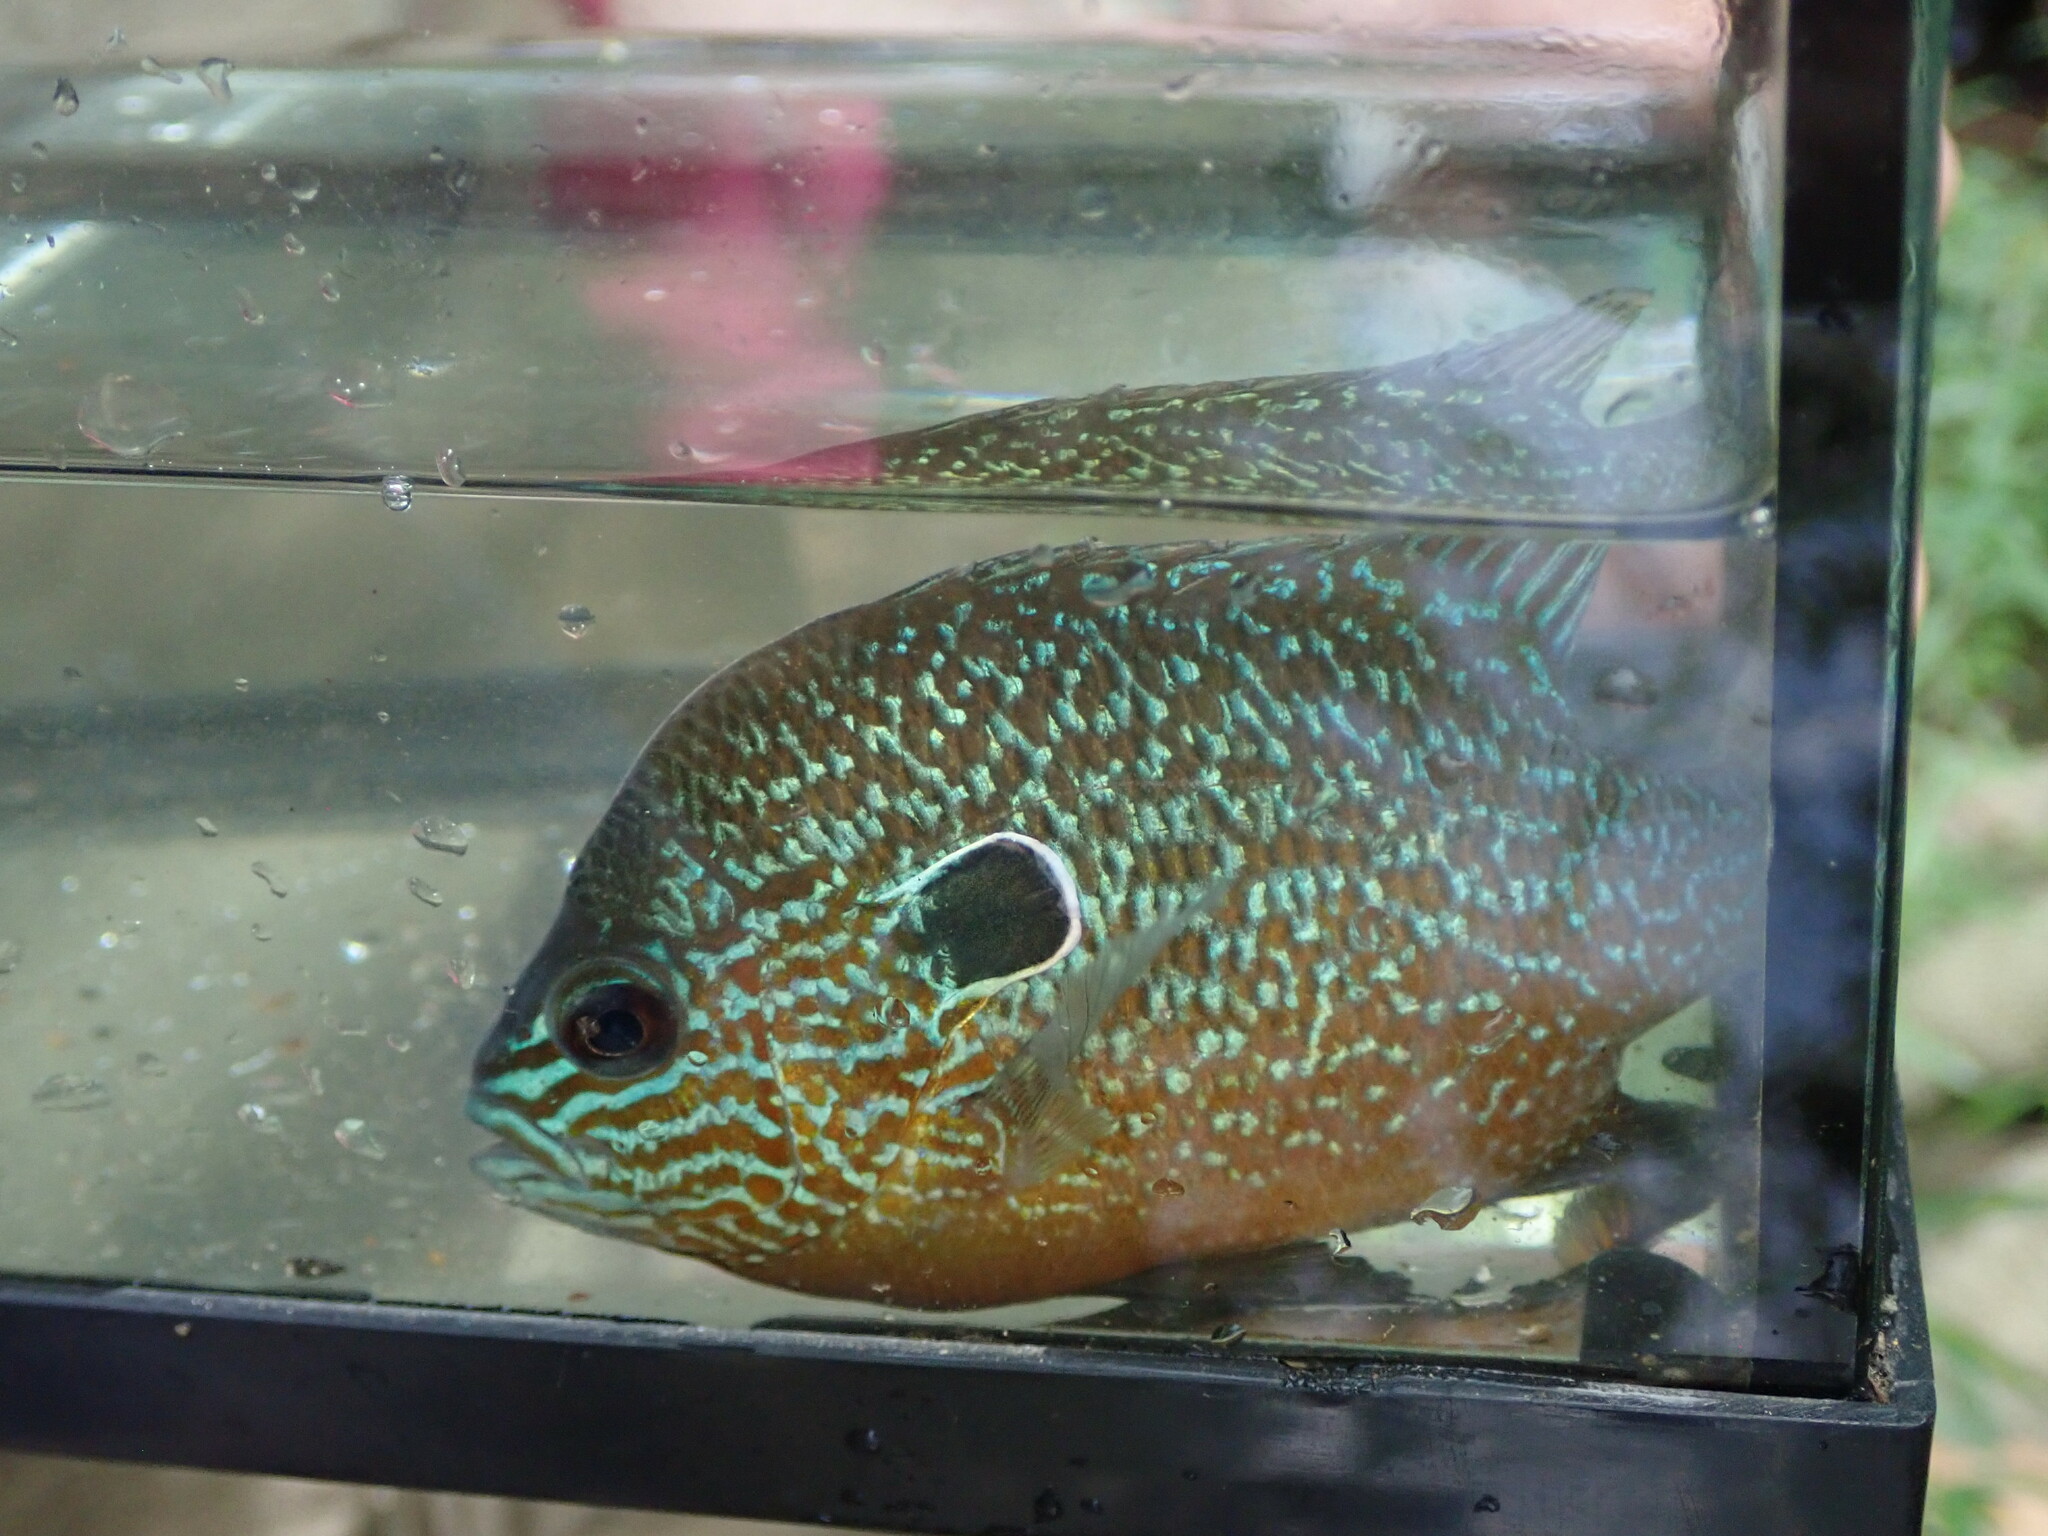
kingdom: Animalia
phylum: Chordata
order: Perciformes
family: Centrarchidae
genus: Lepomis
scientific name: Lepomis megalotis
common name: Longear sunfish
